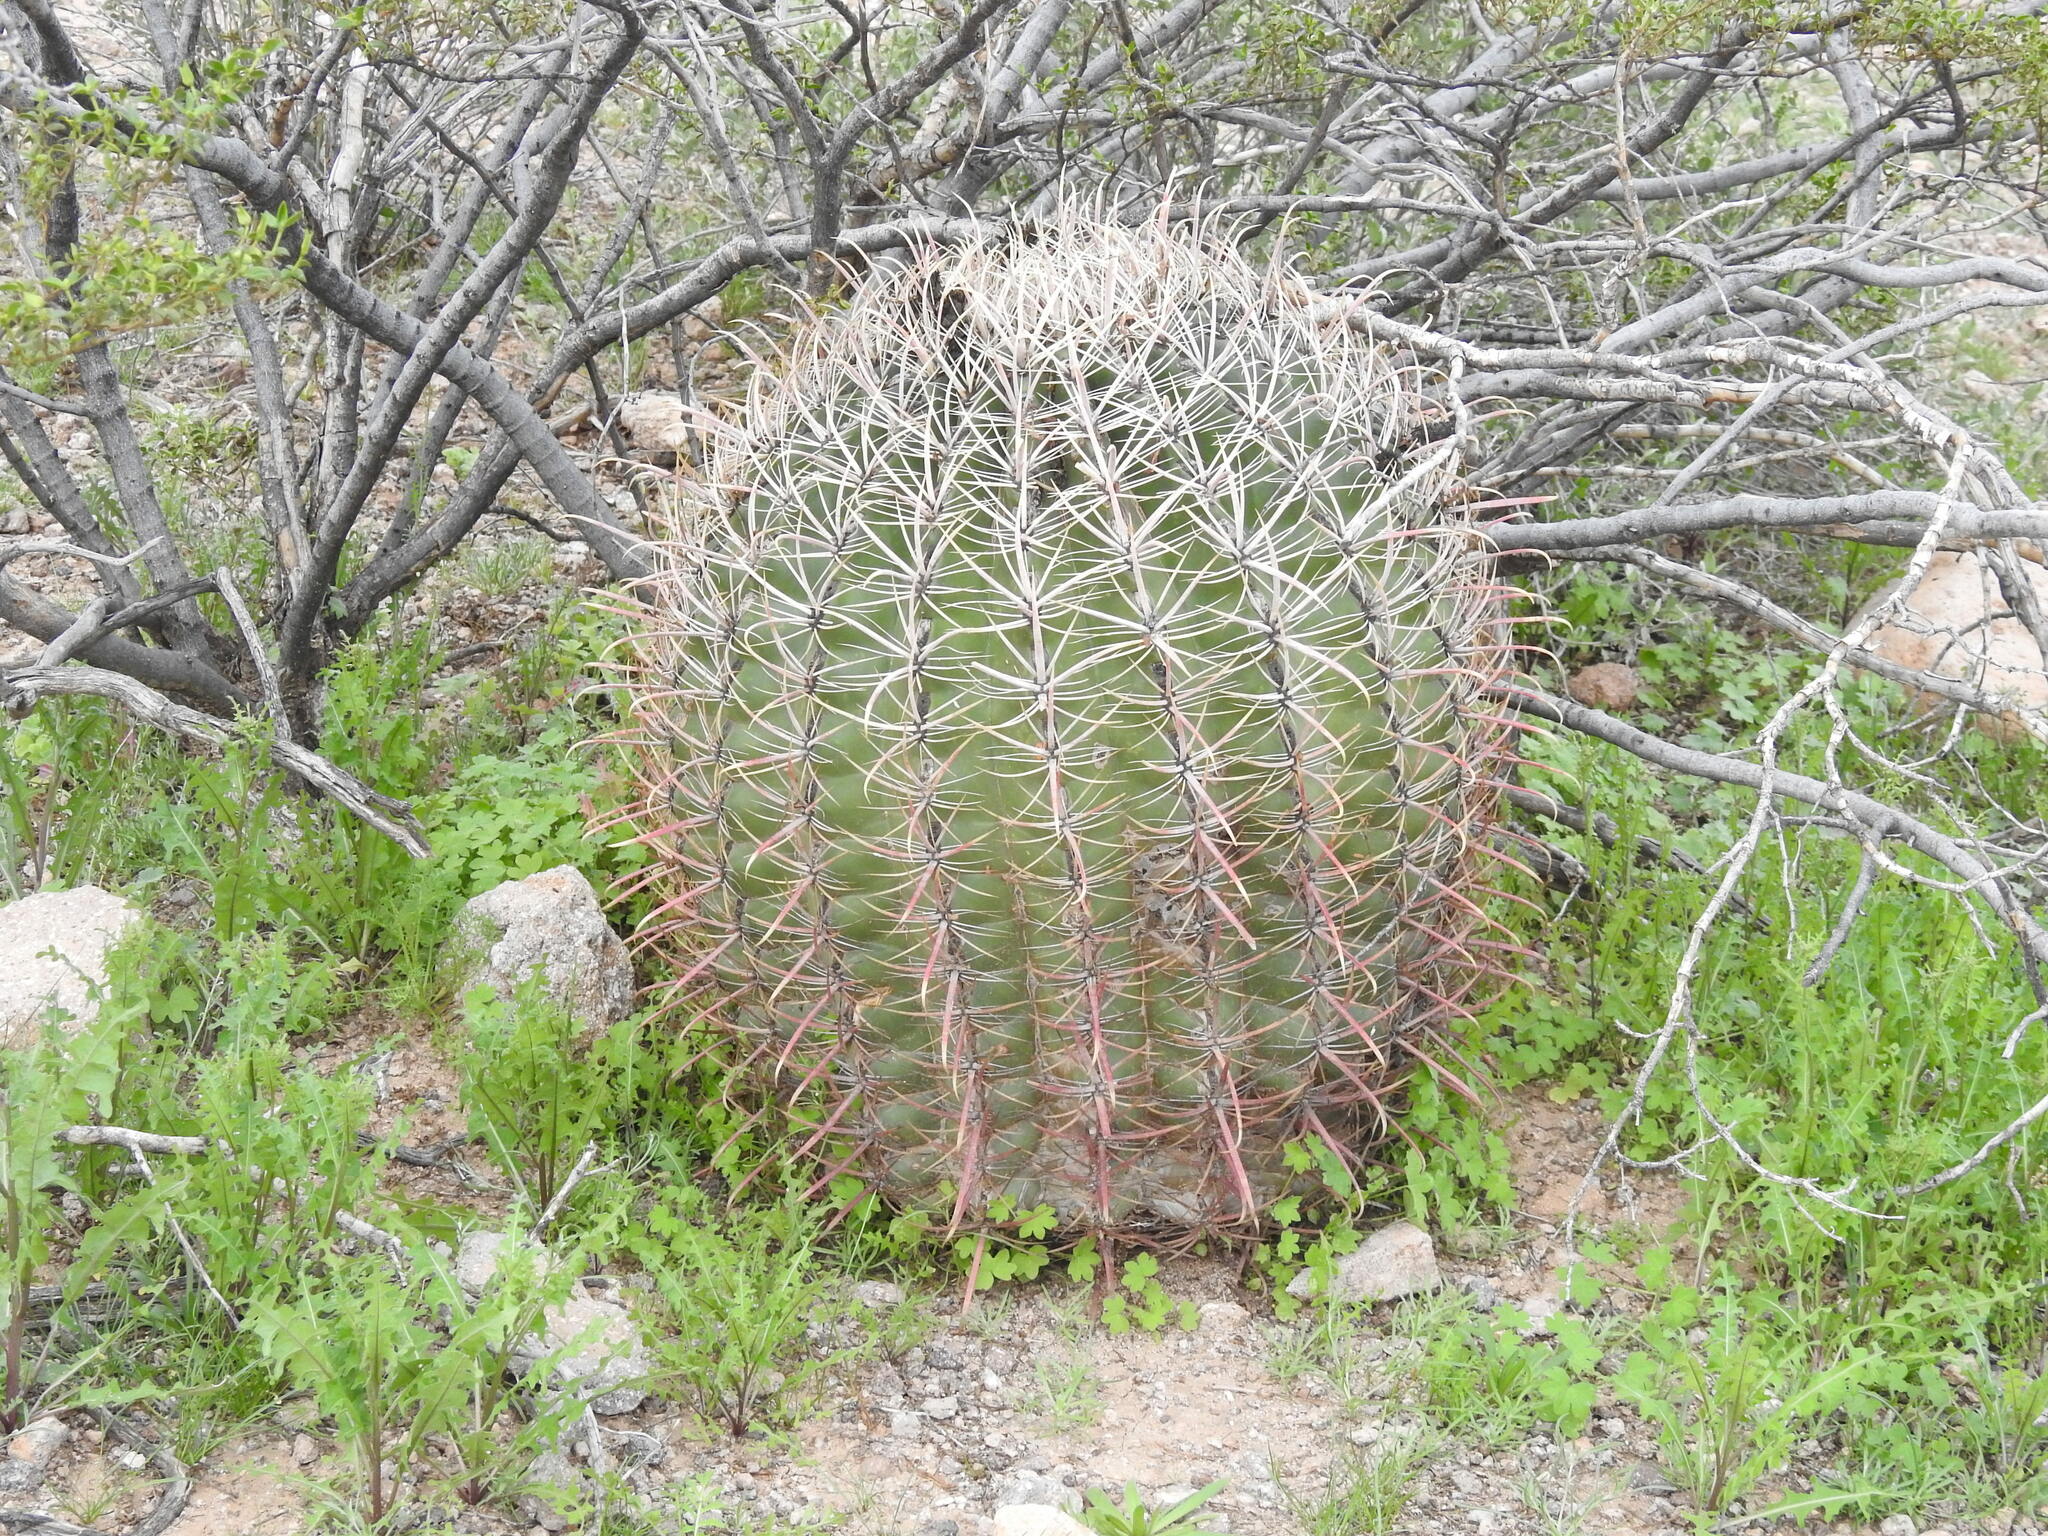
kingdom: Plantae
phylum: Tracheophyta
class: Magnoliopsida
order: Caryophyllales
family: Cactaceae
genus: Ferocactus
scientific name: Ferocactus cylindraceus
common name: California barrel cactus
